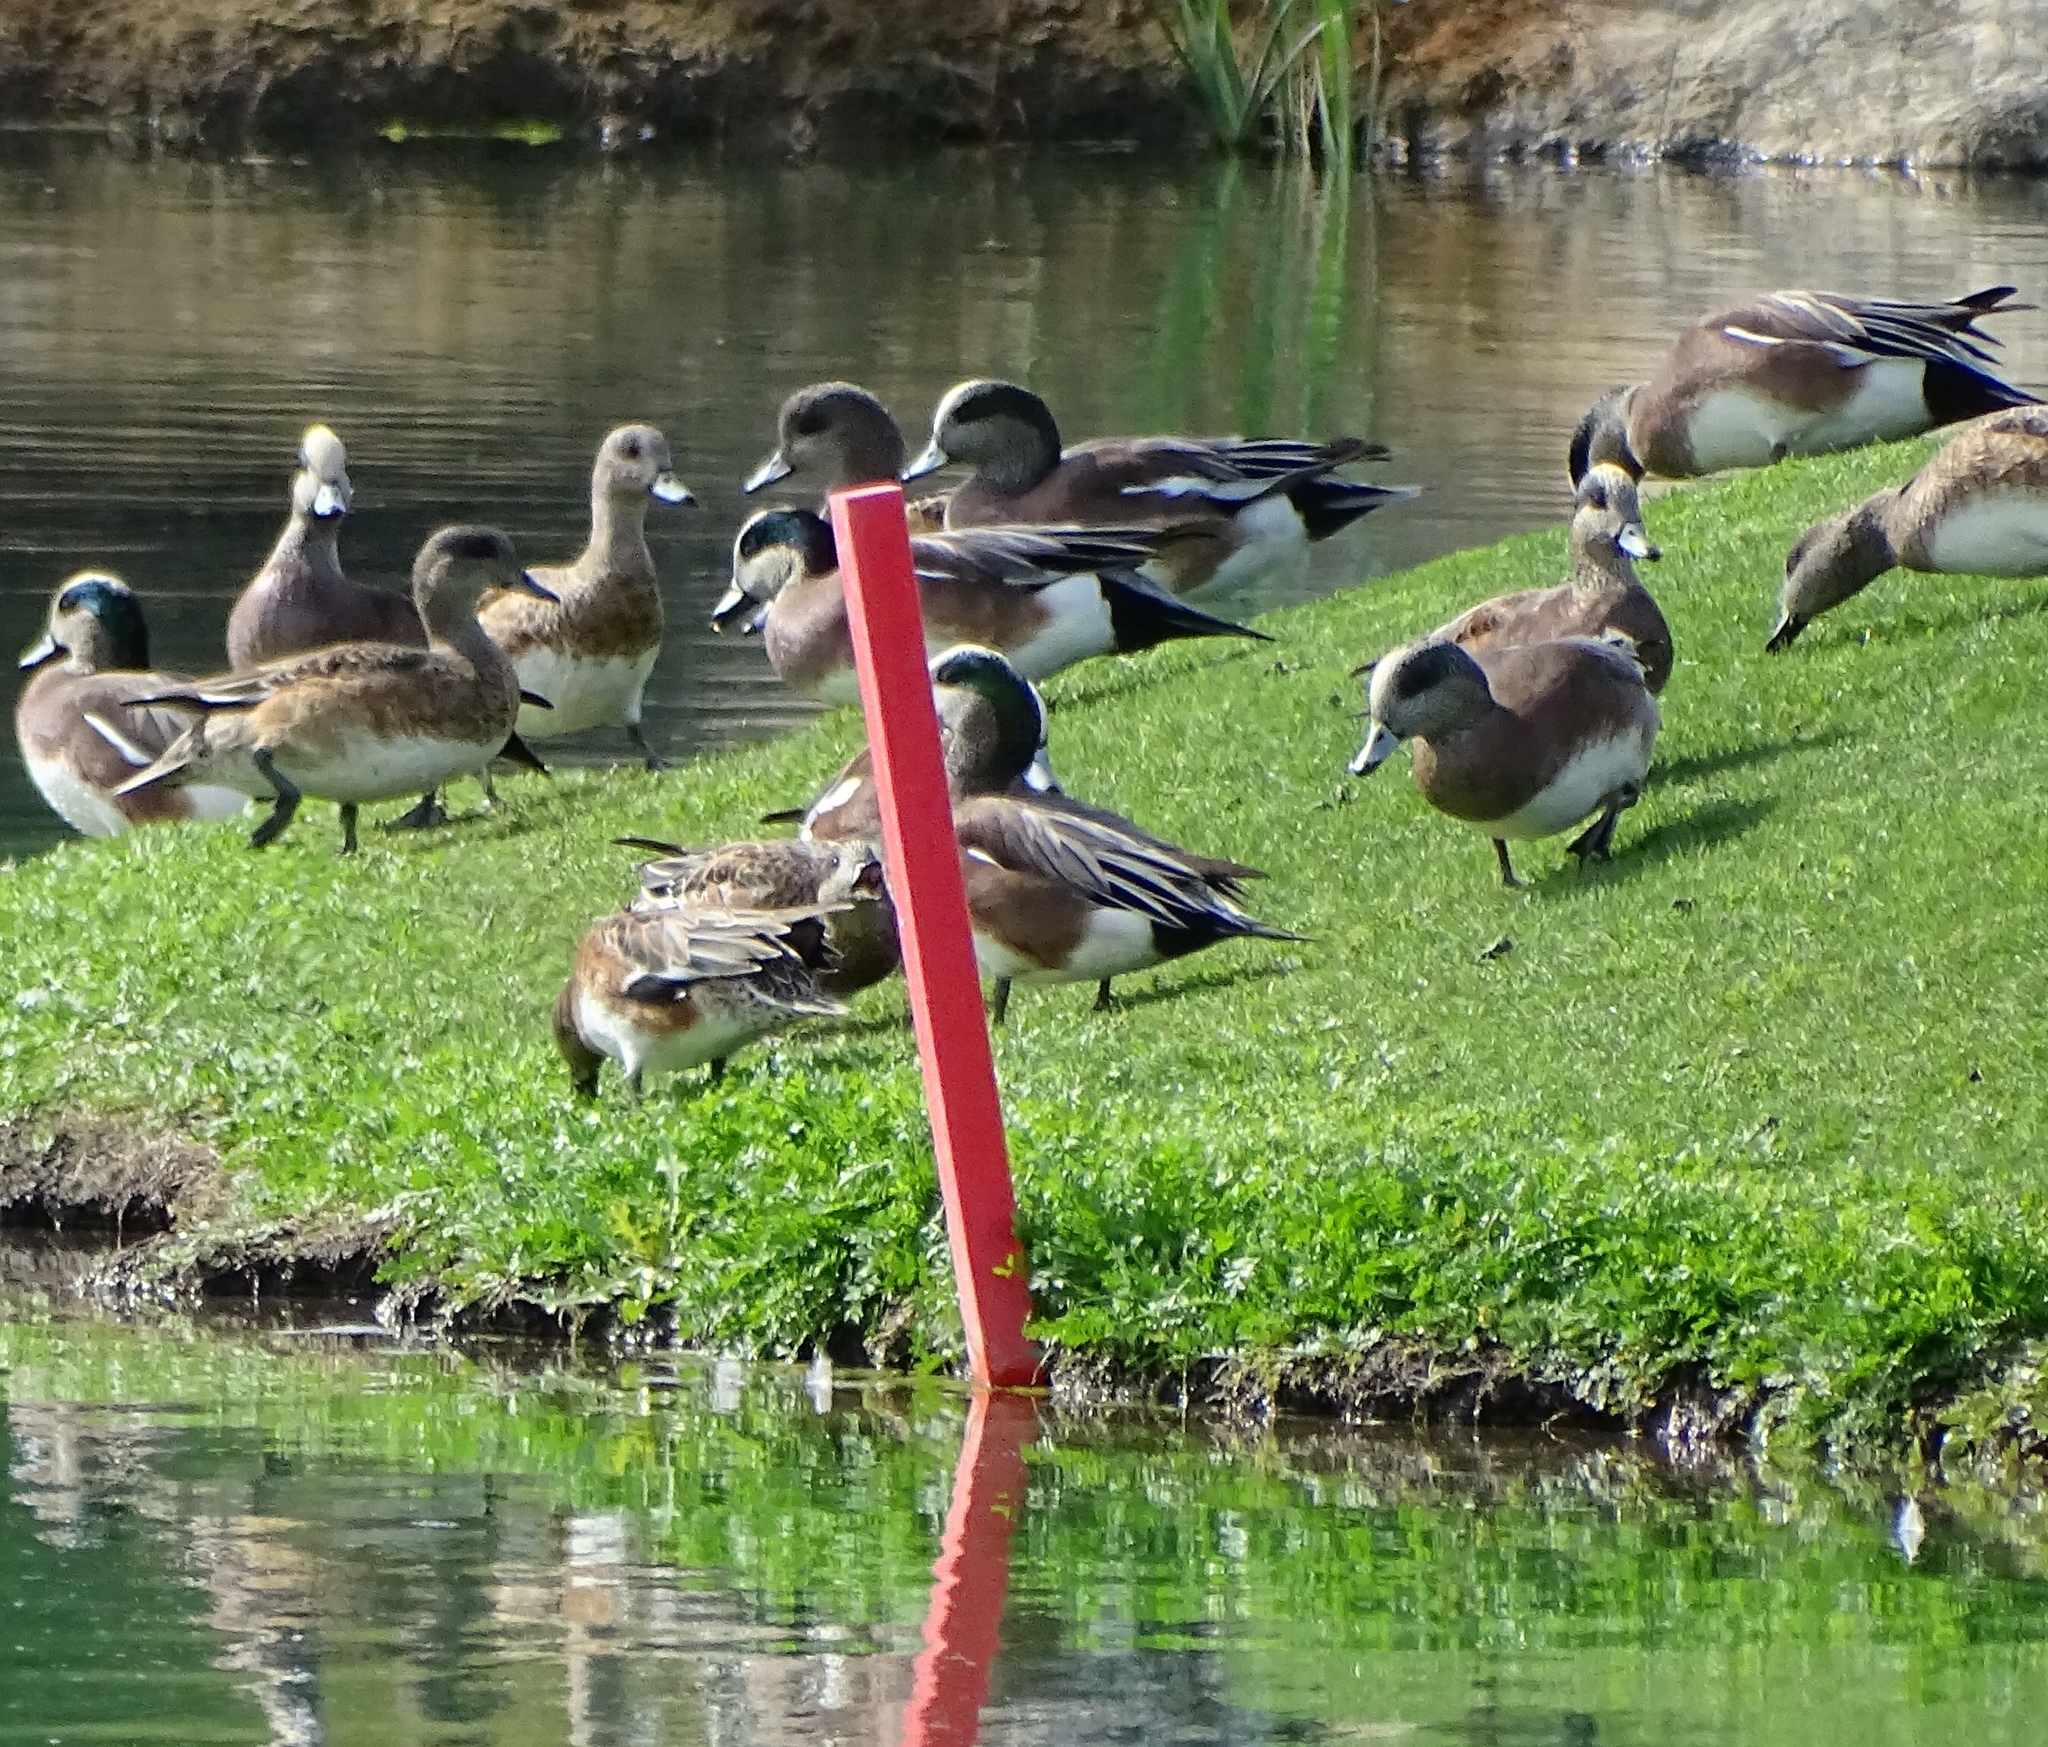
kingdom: Animalia
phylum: Chordata
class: Aves
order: Anseriformes
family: Anatidae
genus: Mareca
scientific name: Mareca americana
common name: American wigeon
